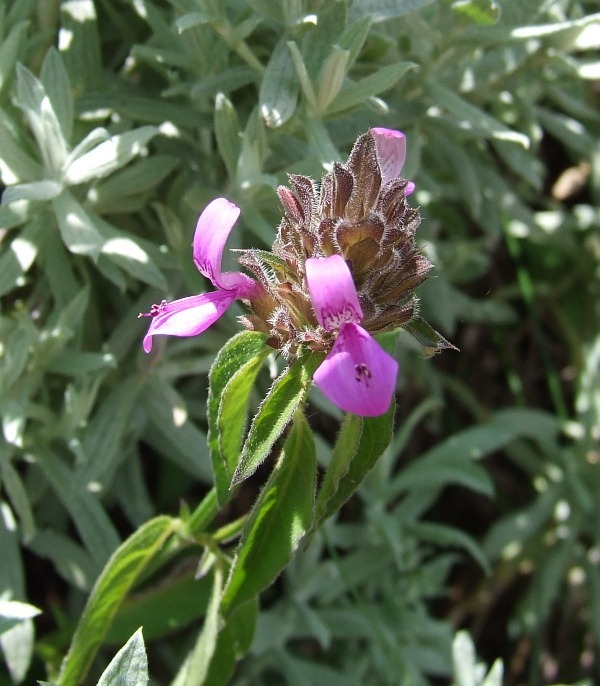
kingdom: Plantae
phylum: Tracheophyta
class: Magnoliopsida
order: Lamiales
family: Acanthaceae
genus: Dicliptera
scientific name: Dicliptera nyangana
